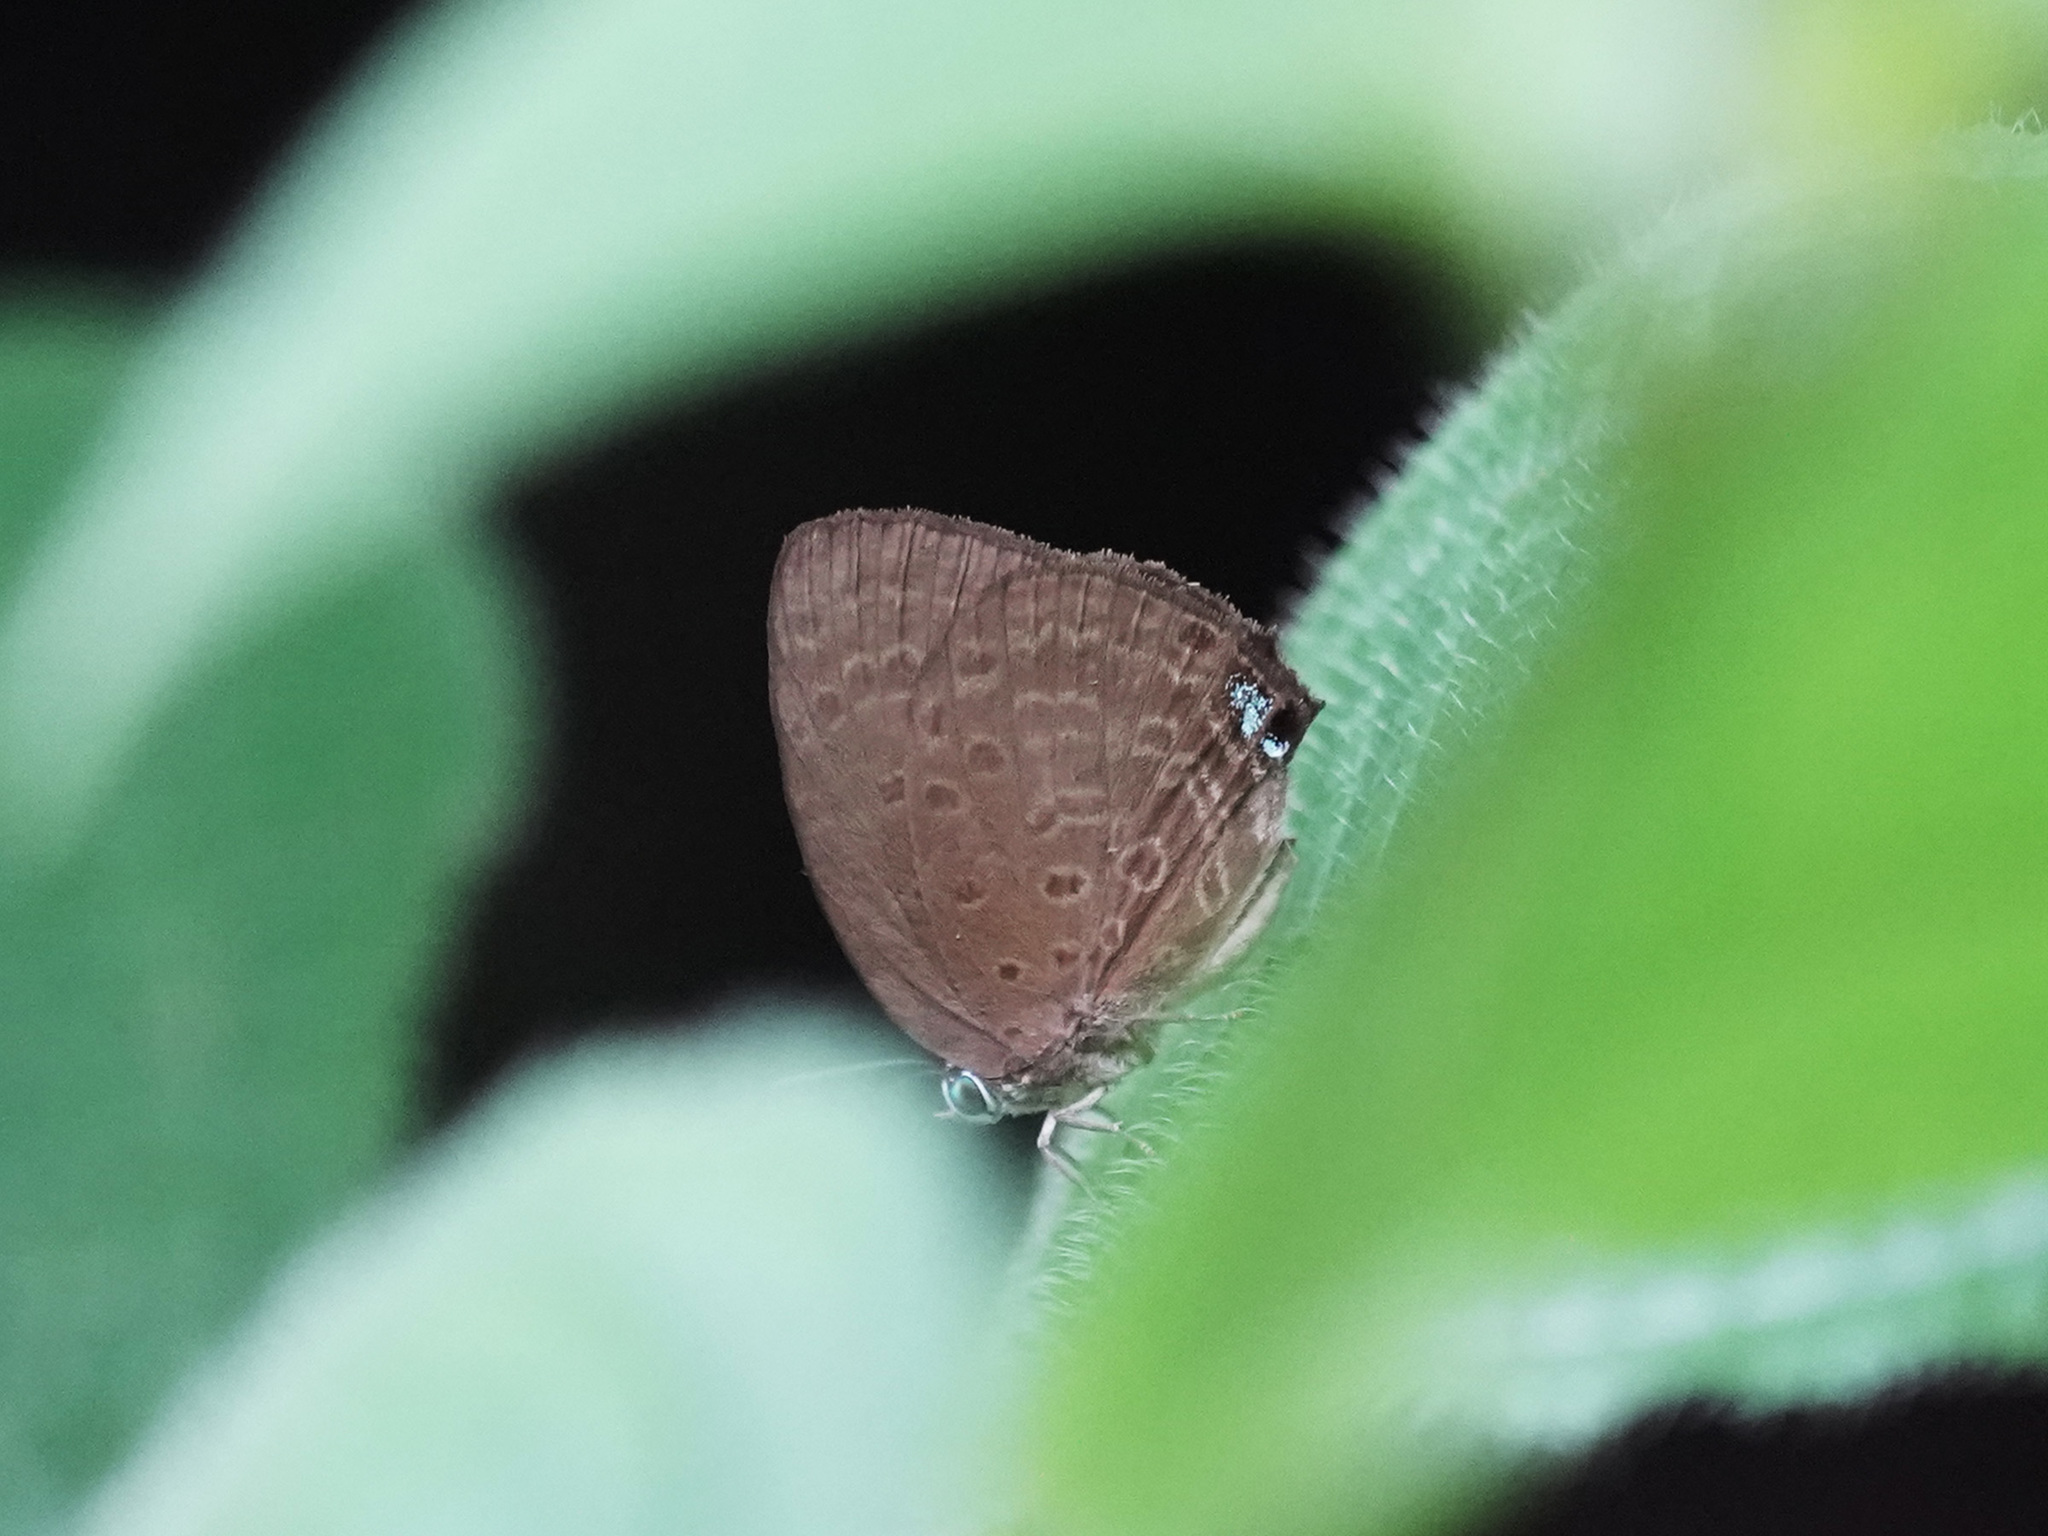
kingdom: Animalia
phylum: Arthropoda
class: Insecta
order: Lepidoptera
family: Lycaenidae
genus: Arhopala
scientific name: Arhopala major
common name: Major yellow oakblue
